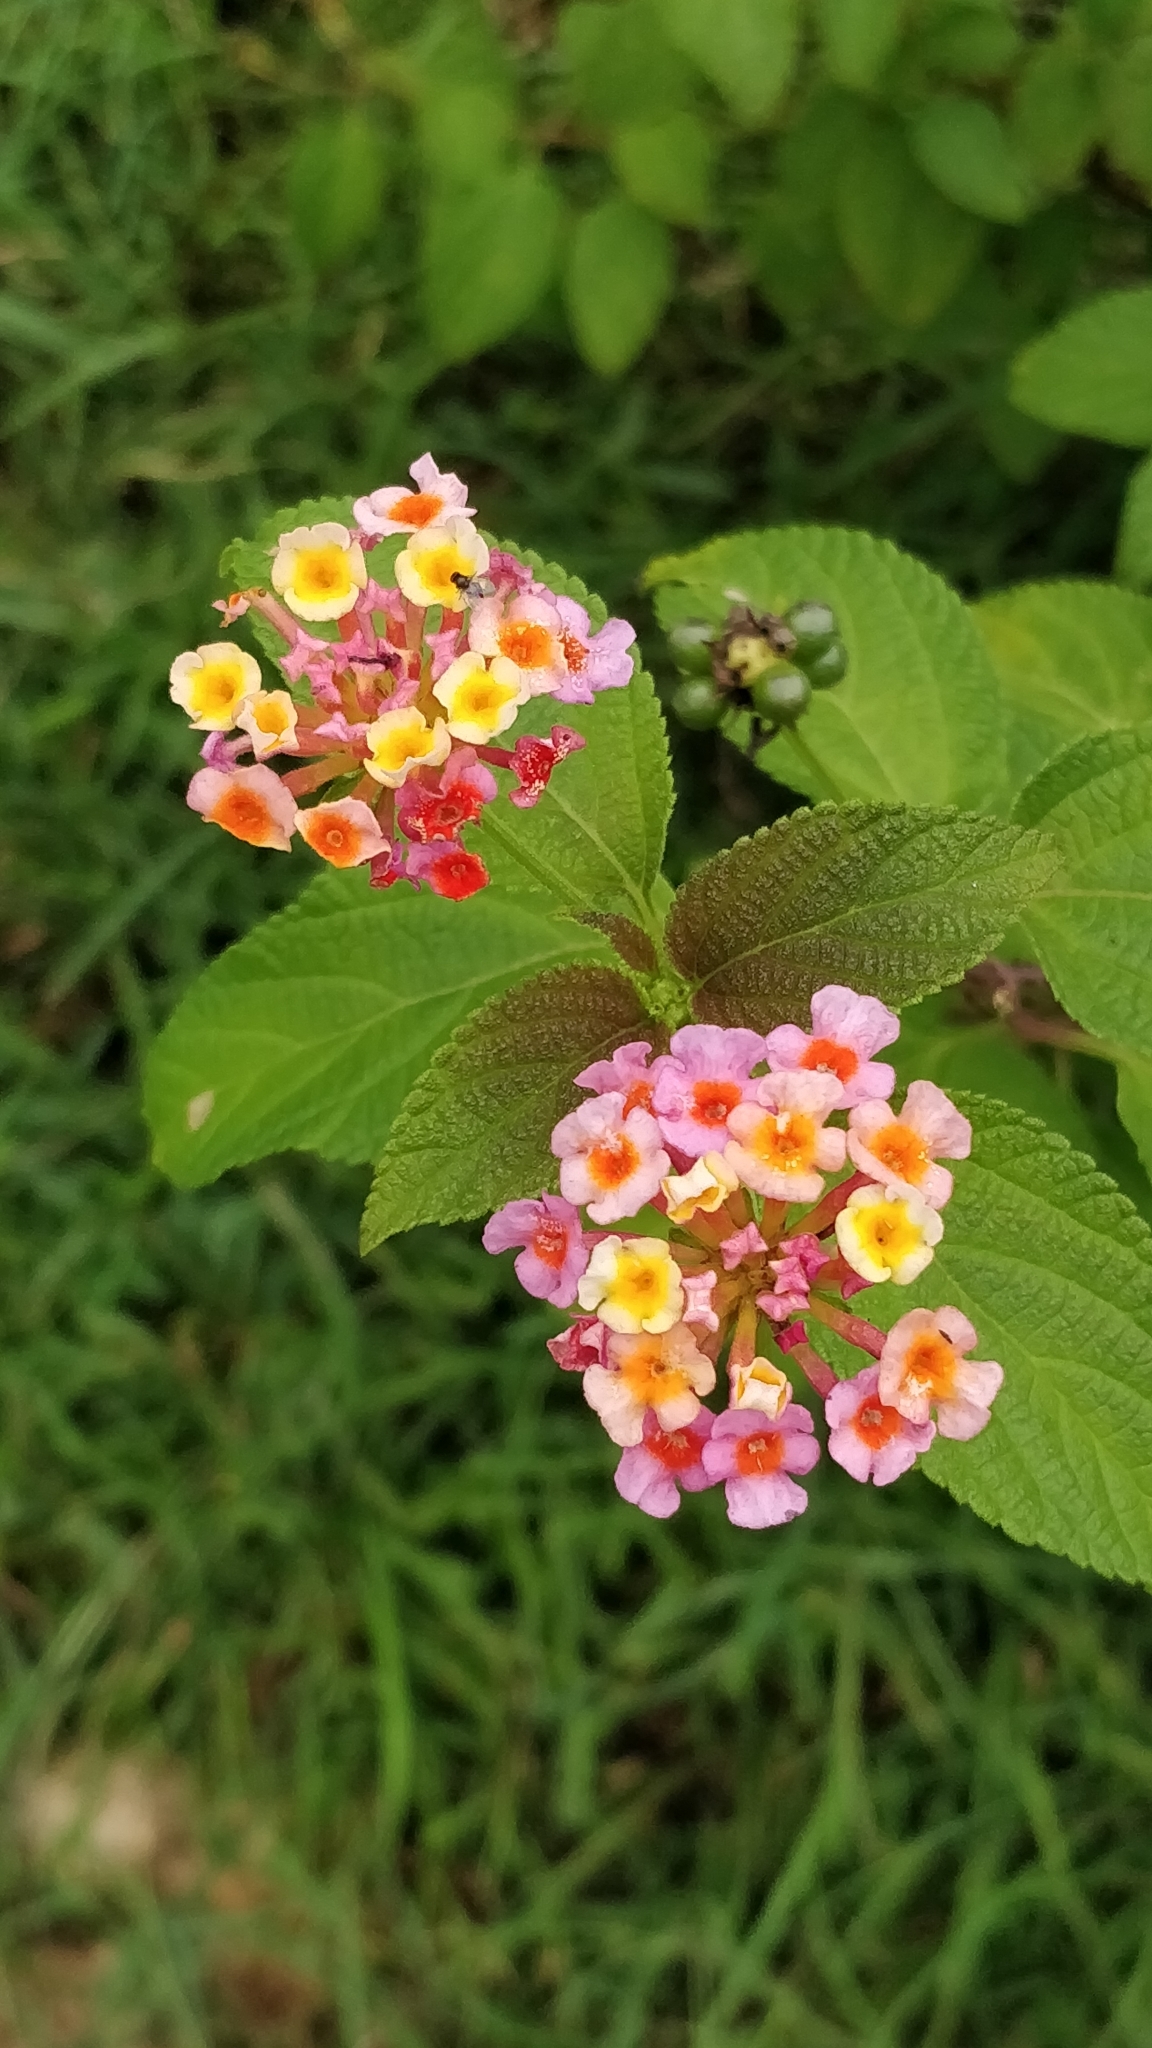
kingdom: Plantae
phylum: Tracheophyta
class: Magnoliopsida
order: Lamiales
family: Verbenaceae
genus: Lantana
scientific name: Lantana camara
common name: Lantana
